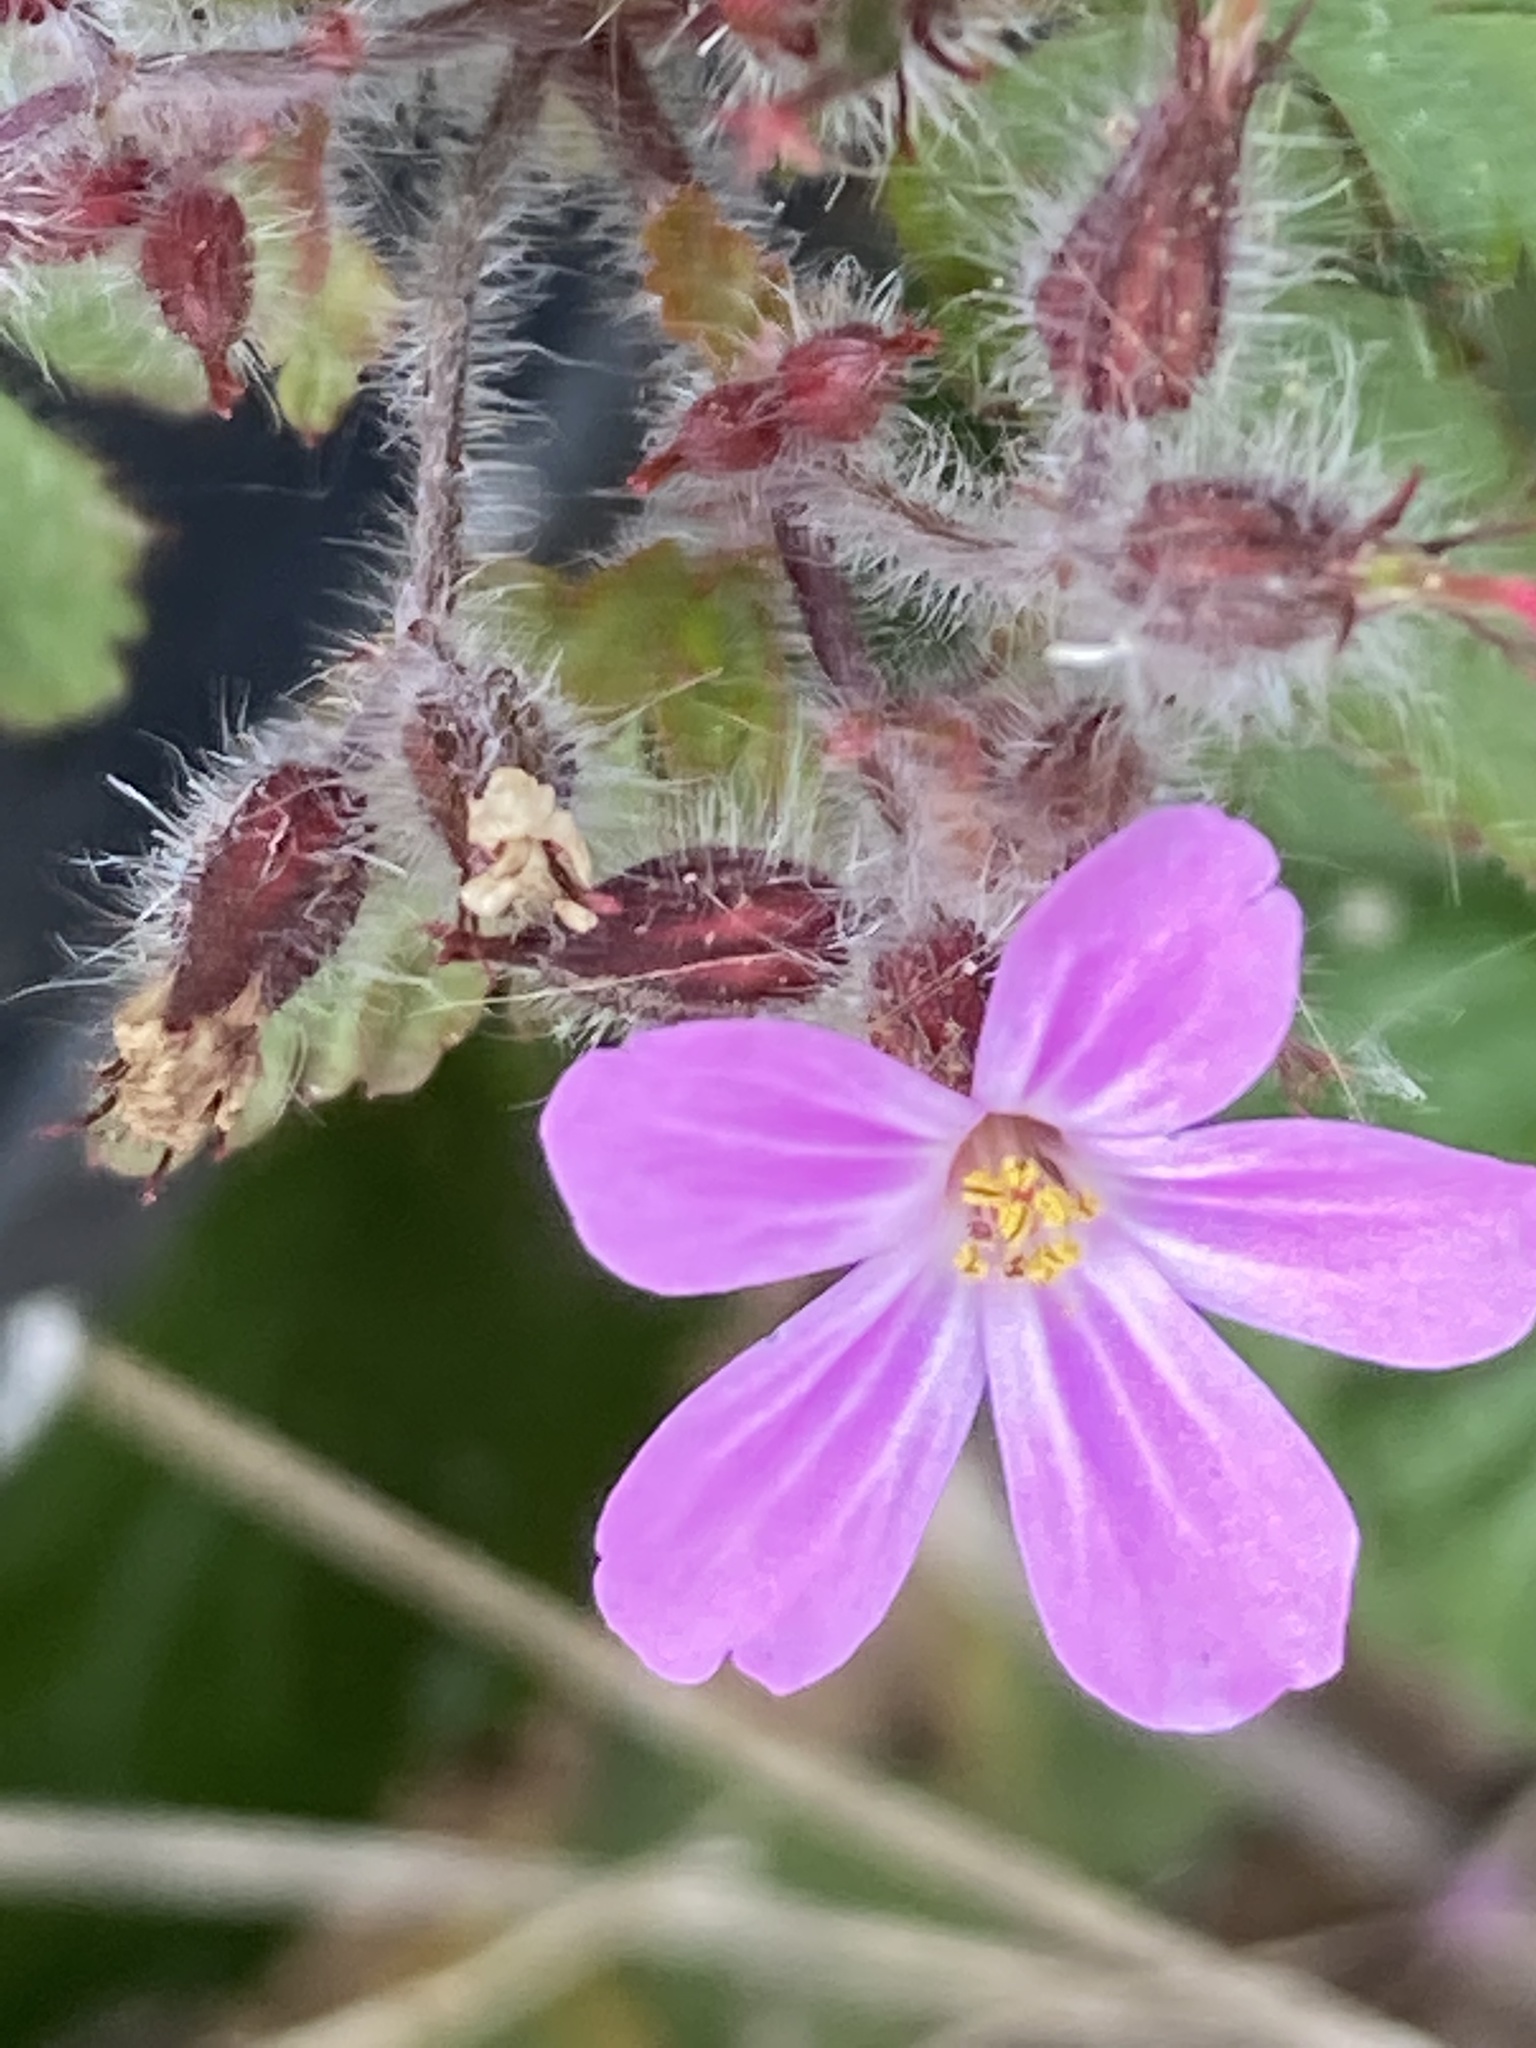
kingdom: Plantae
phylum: Tracheophyta
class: Magnoliopsida
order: Geraniales
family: Geraniaceae
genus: Geranium
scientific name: Geranium robertianum
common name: Herb-robert
